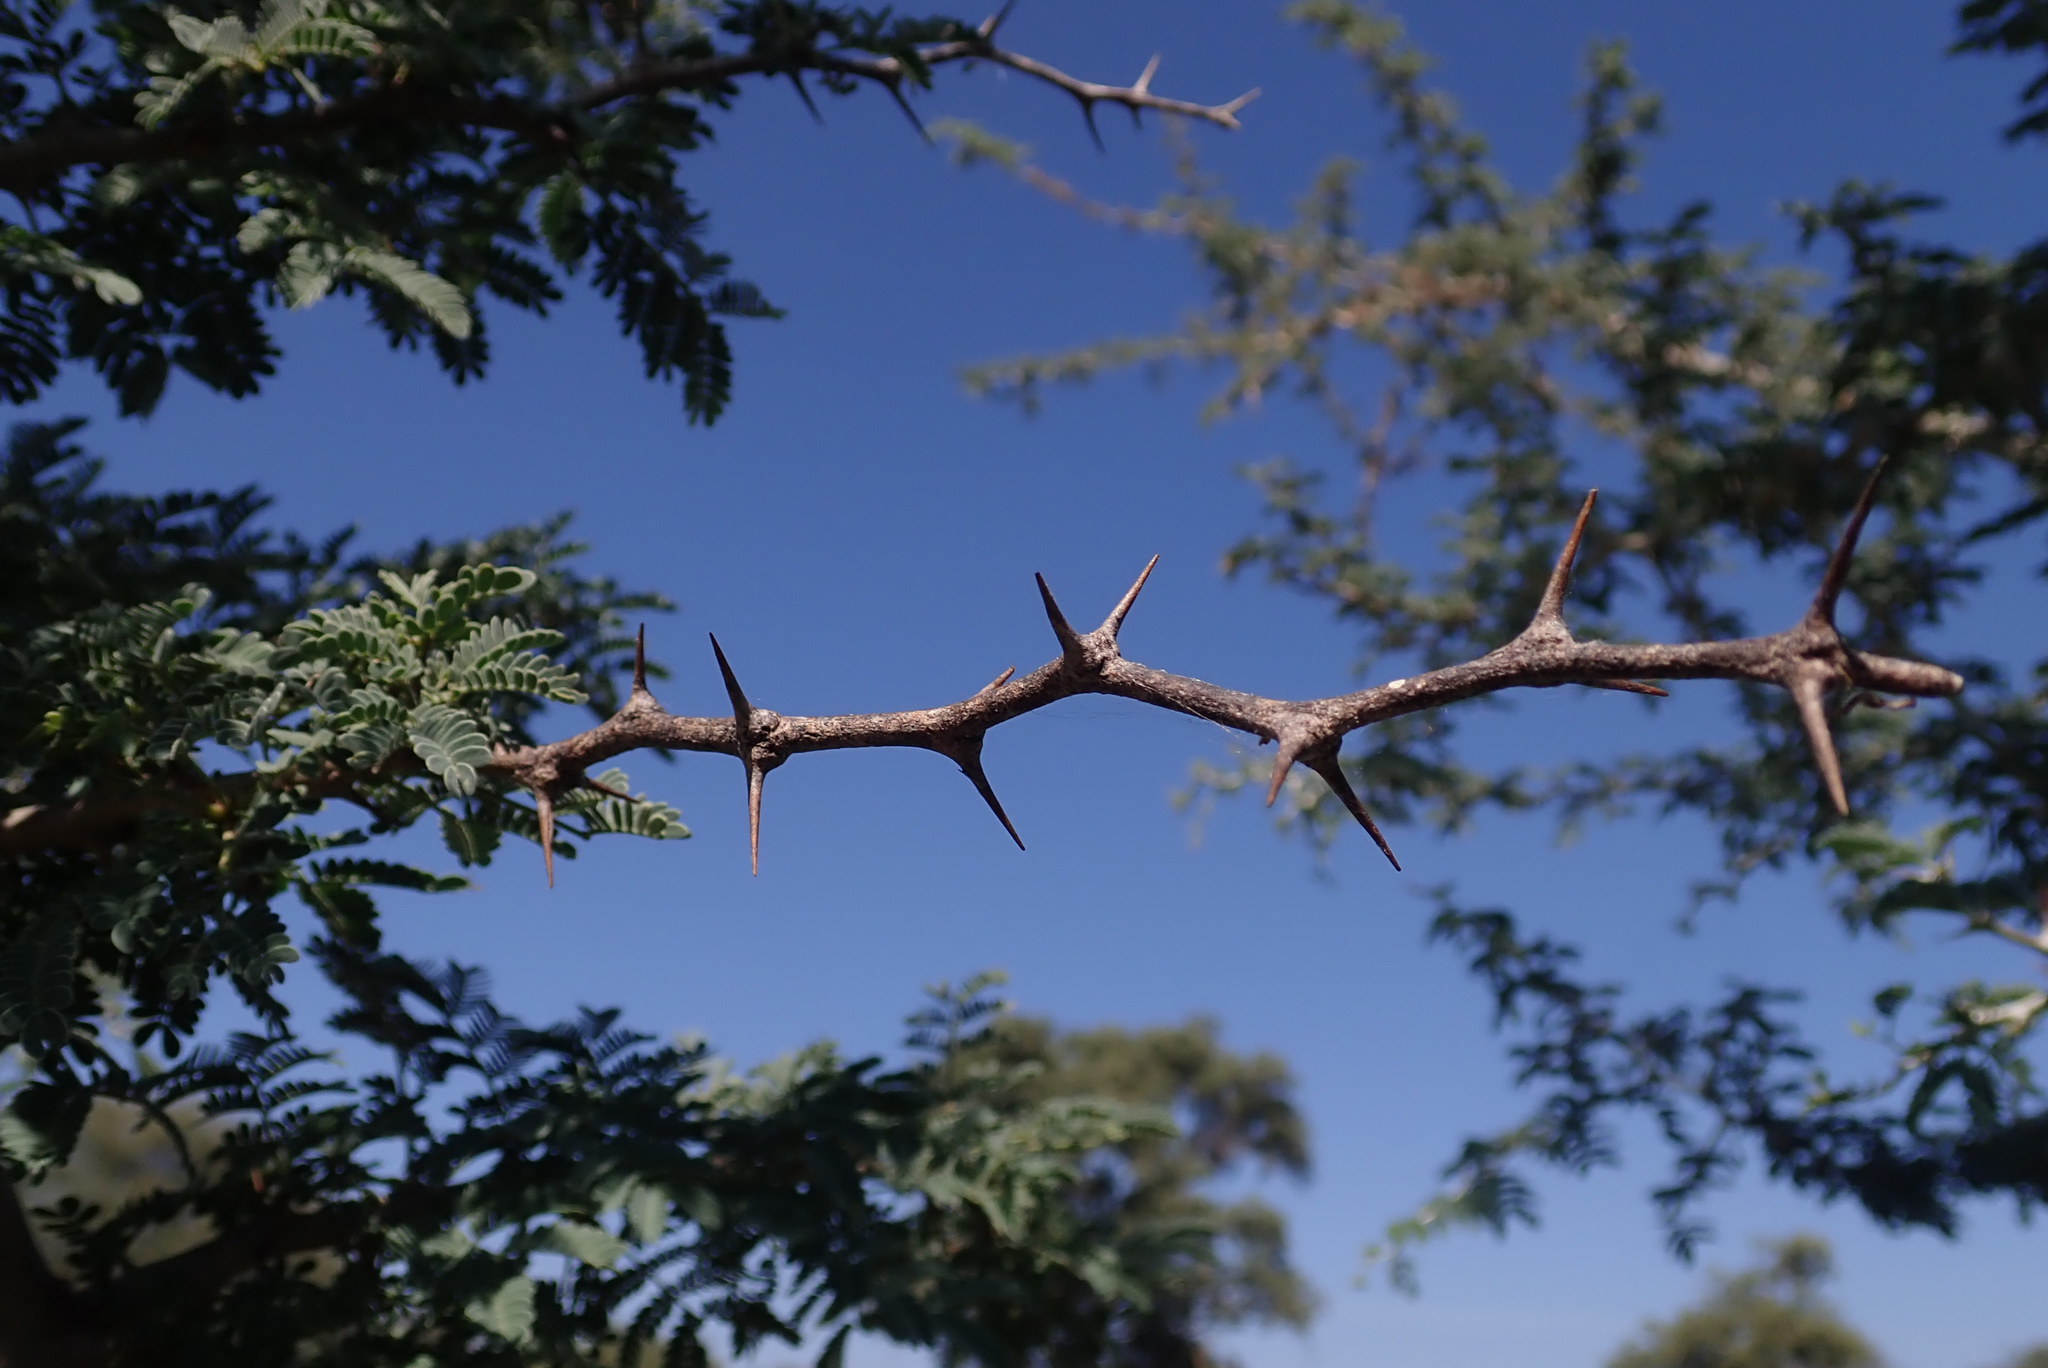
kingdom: Plantae
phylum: Tracheophyta
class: Magnoliopsida
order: Fabales
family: Fabaceae
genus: Faidherbia
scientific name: Faidherbia albida
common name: Anatree
